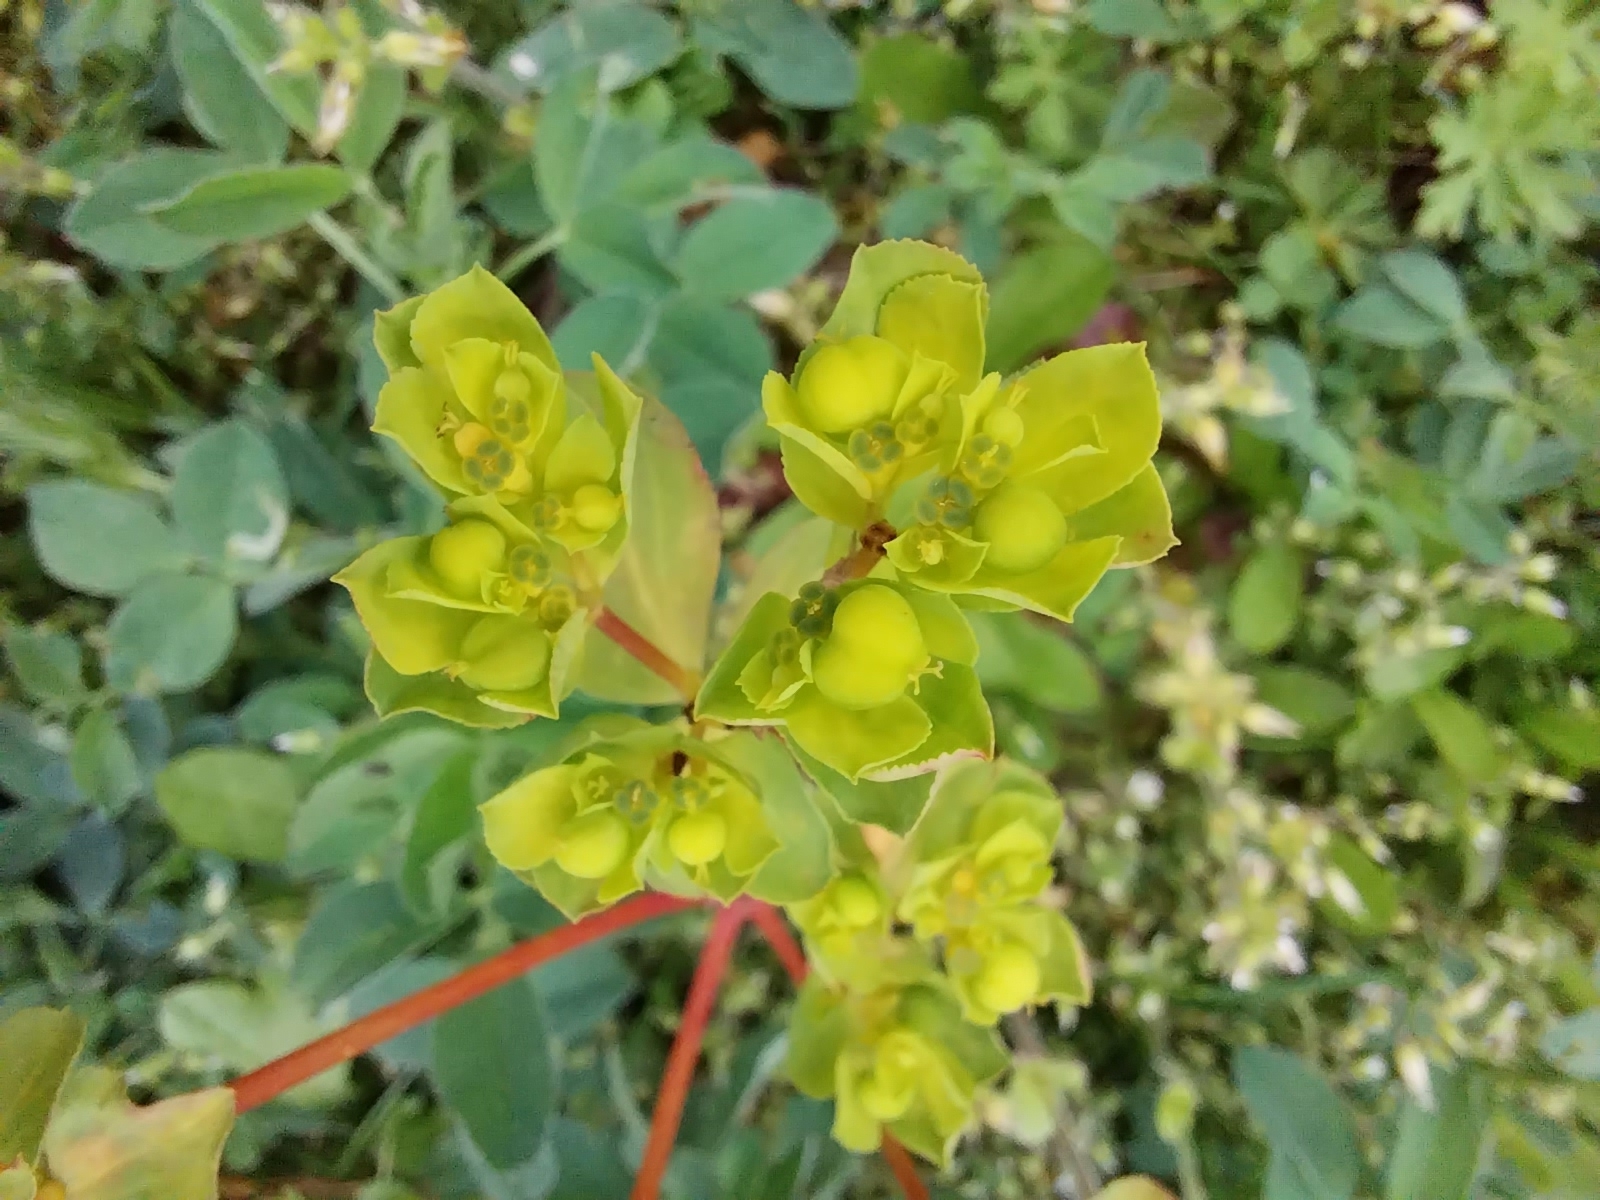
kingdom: Plantae
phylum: Tracheophyta
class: Magnoliopsida
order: Malpighiales
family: Euphorbiaceae
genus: Euphorbia
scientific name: Euphorbia helioscopia
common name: Sun spurge
